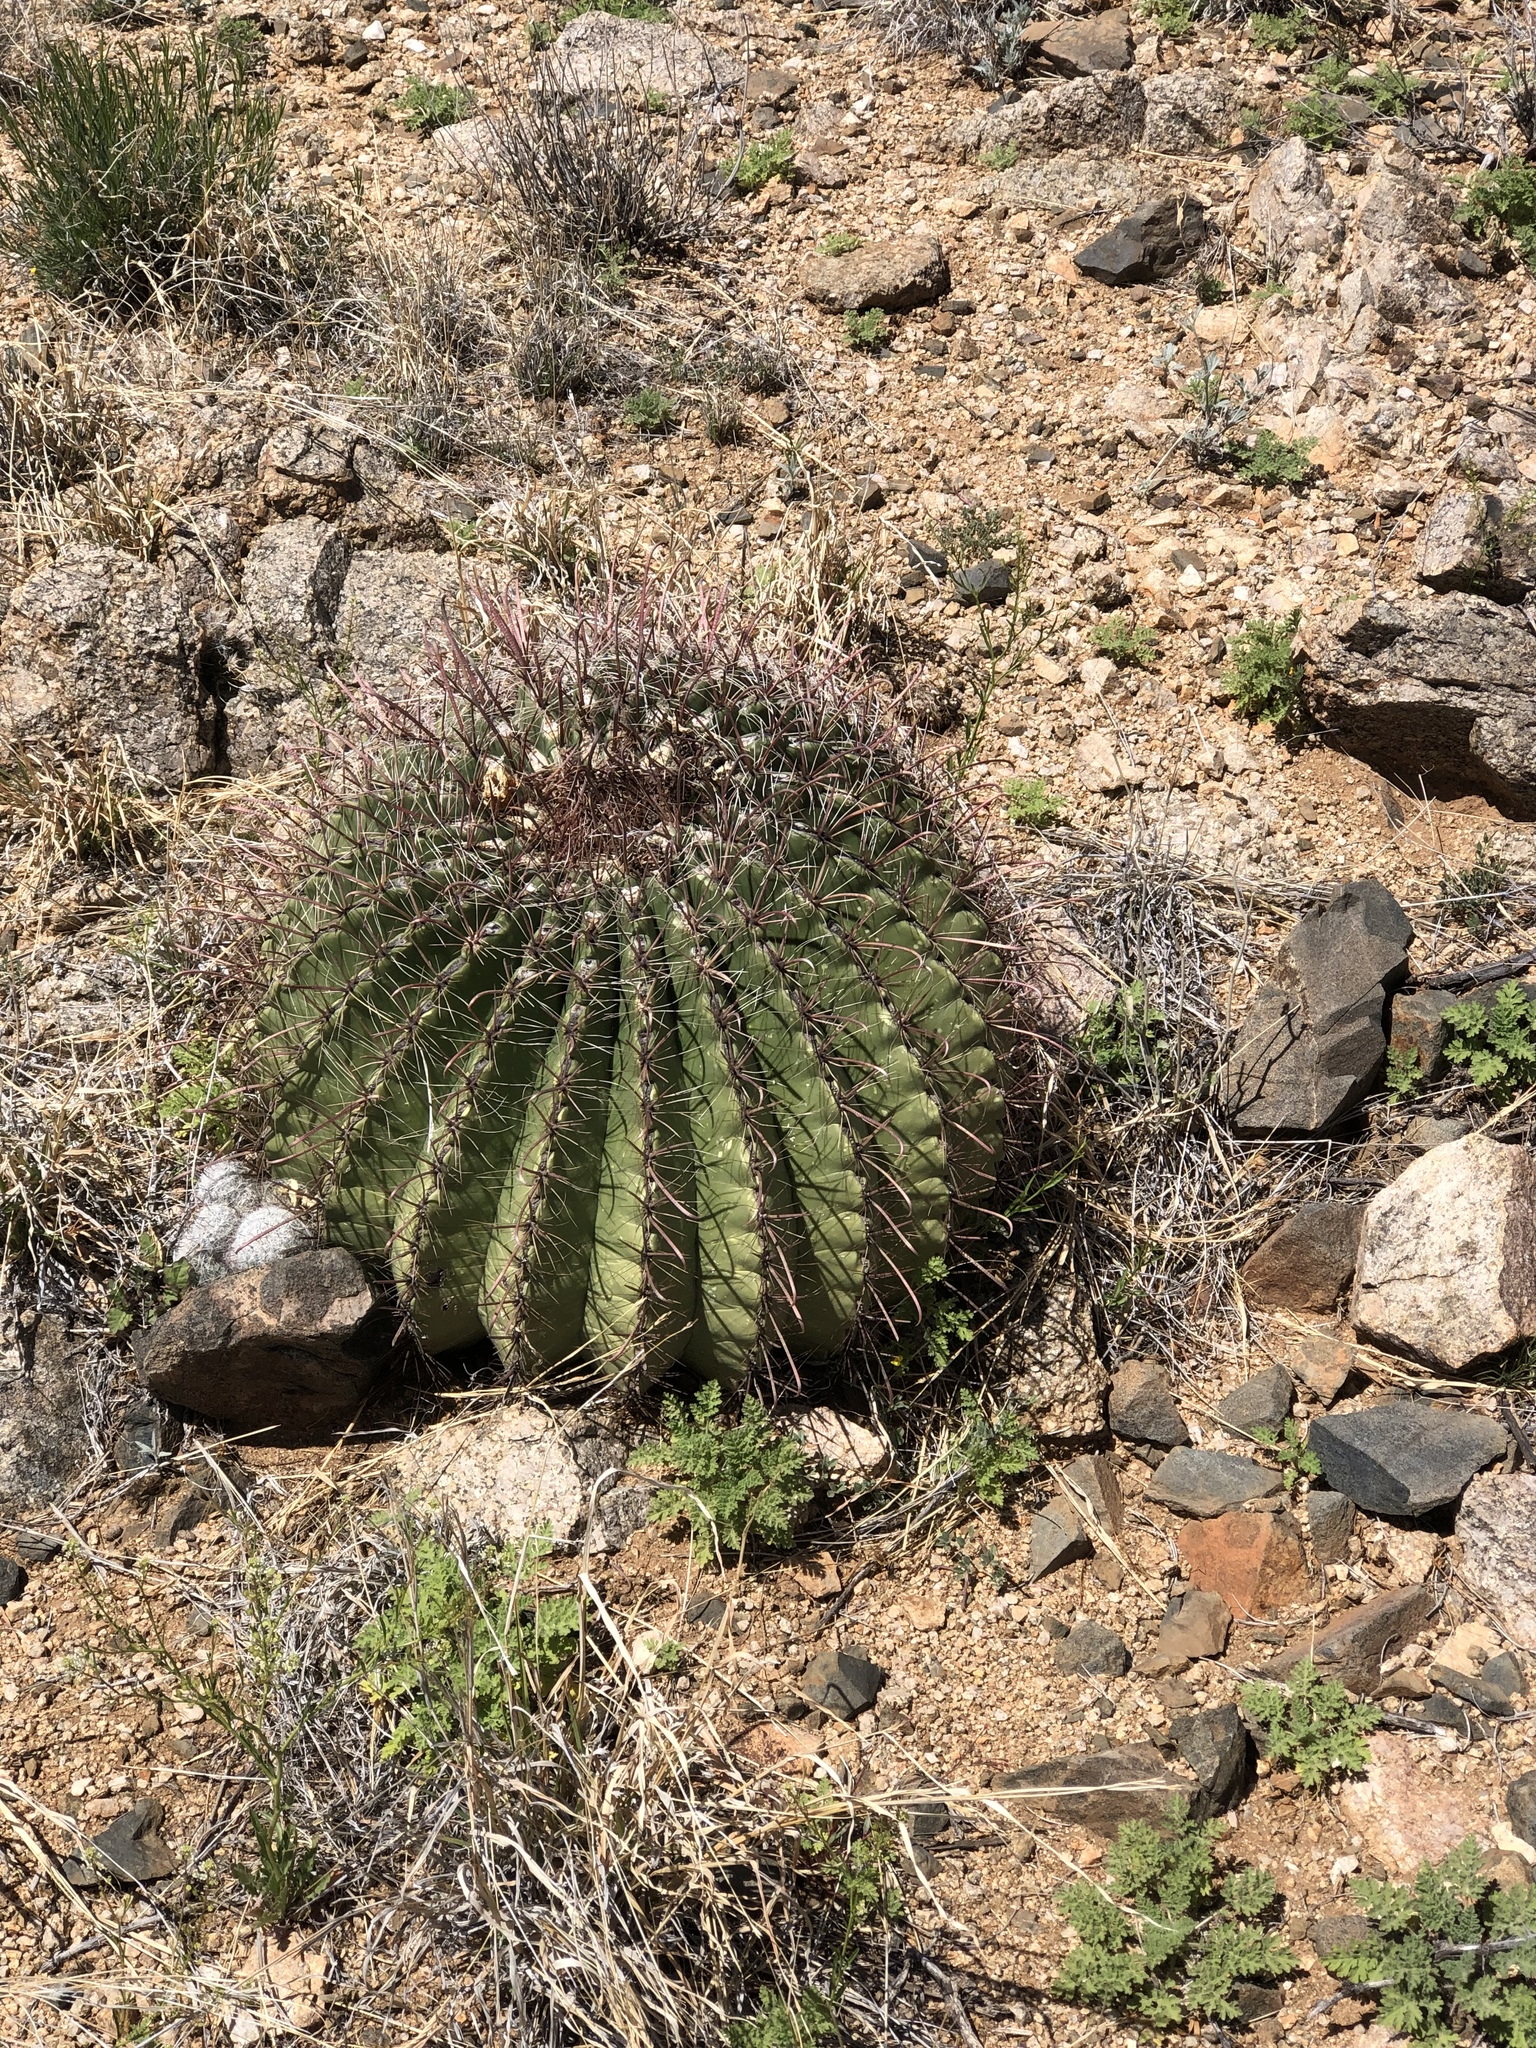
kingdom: Plantae
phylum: Tracheophyta
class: Magnoliopsida
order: Caryophyllales
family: Cactaceae
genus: Ferocactus
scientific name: Ferocactus wislizeni
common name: Candy barrel cactus
